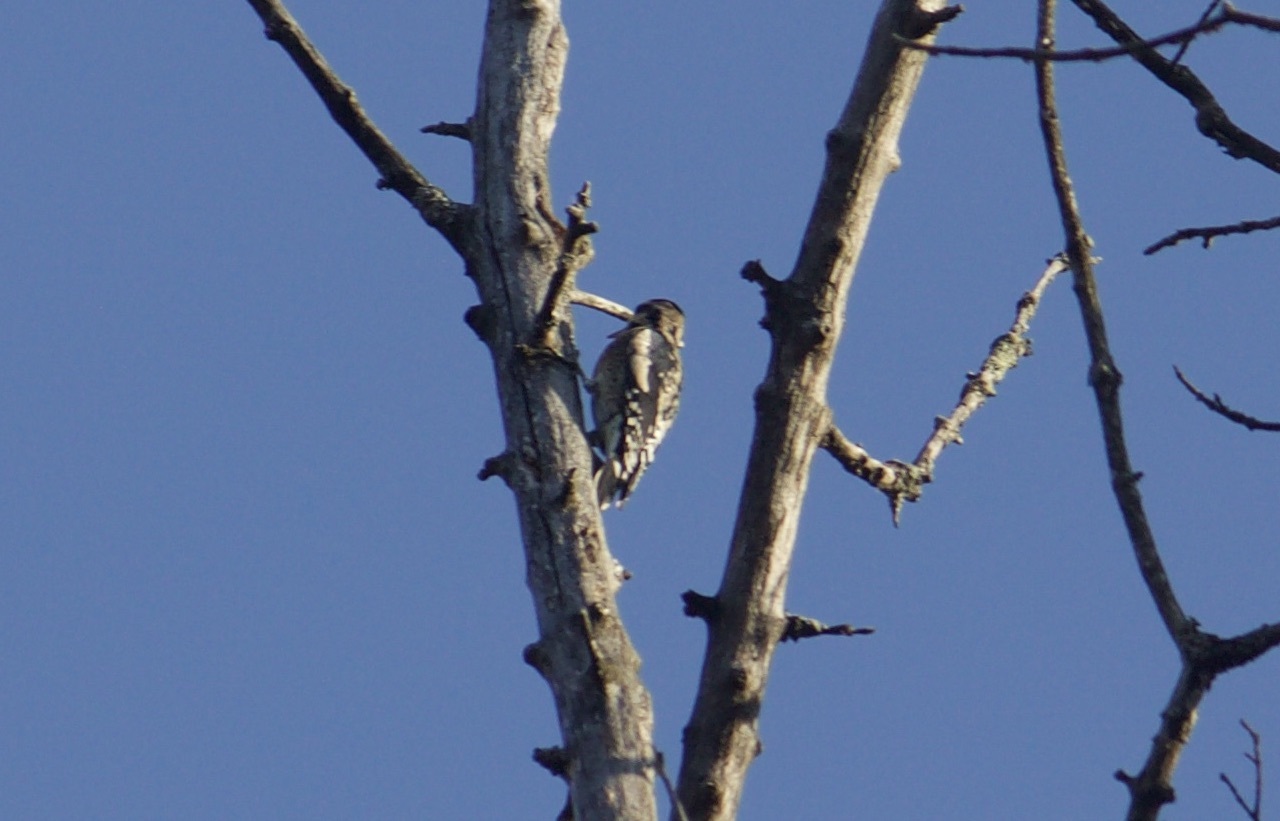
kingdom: Animalia
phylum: Chordata
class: Aves
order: Piciformes
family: Picidae
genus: Sphyrapicus
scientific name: Sphyrapicus varius
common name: Yellow-bellied sapsucker
